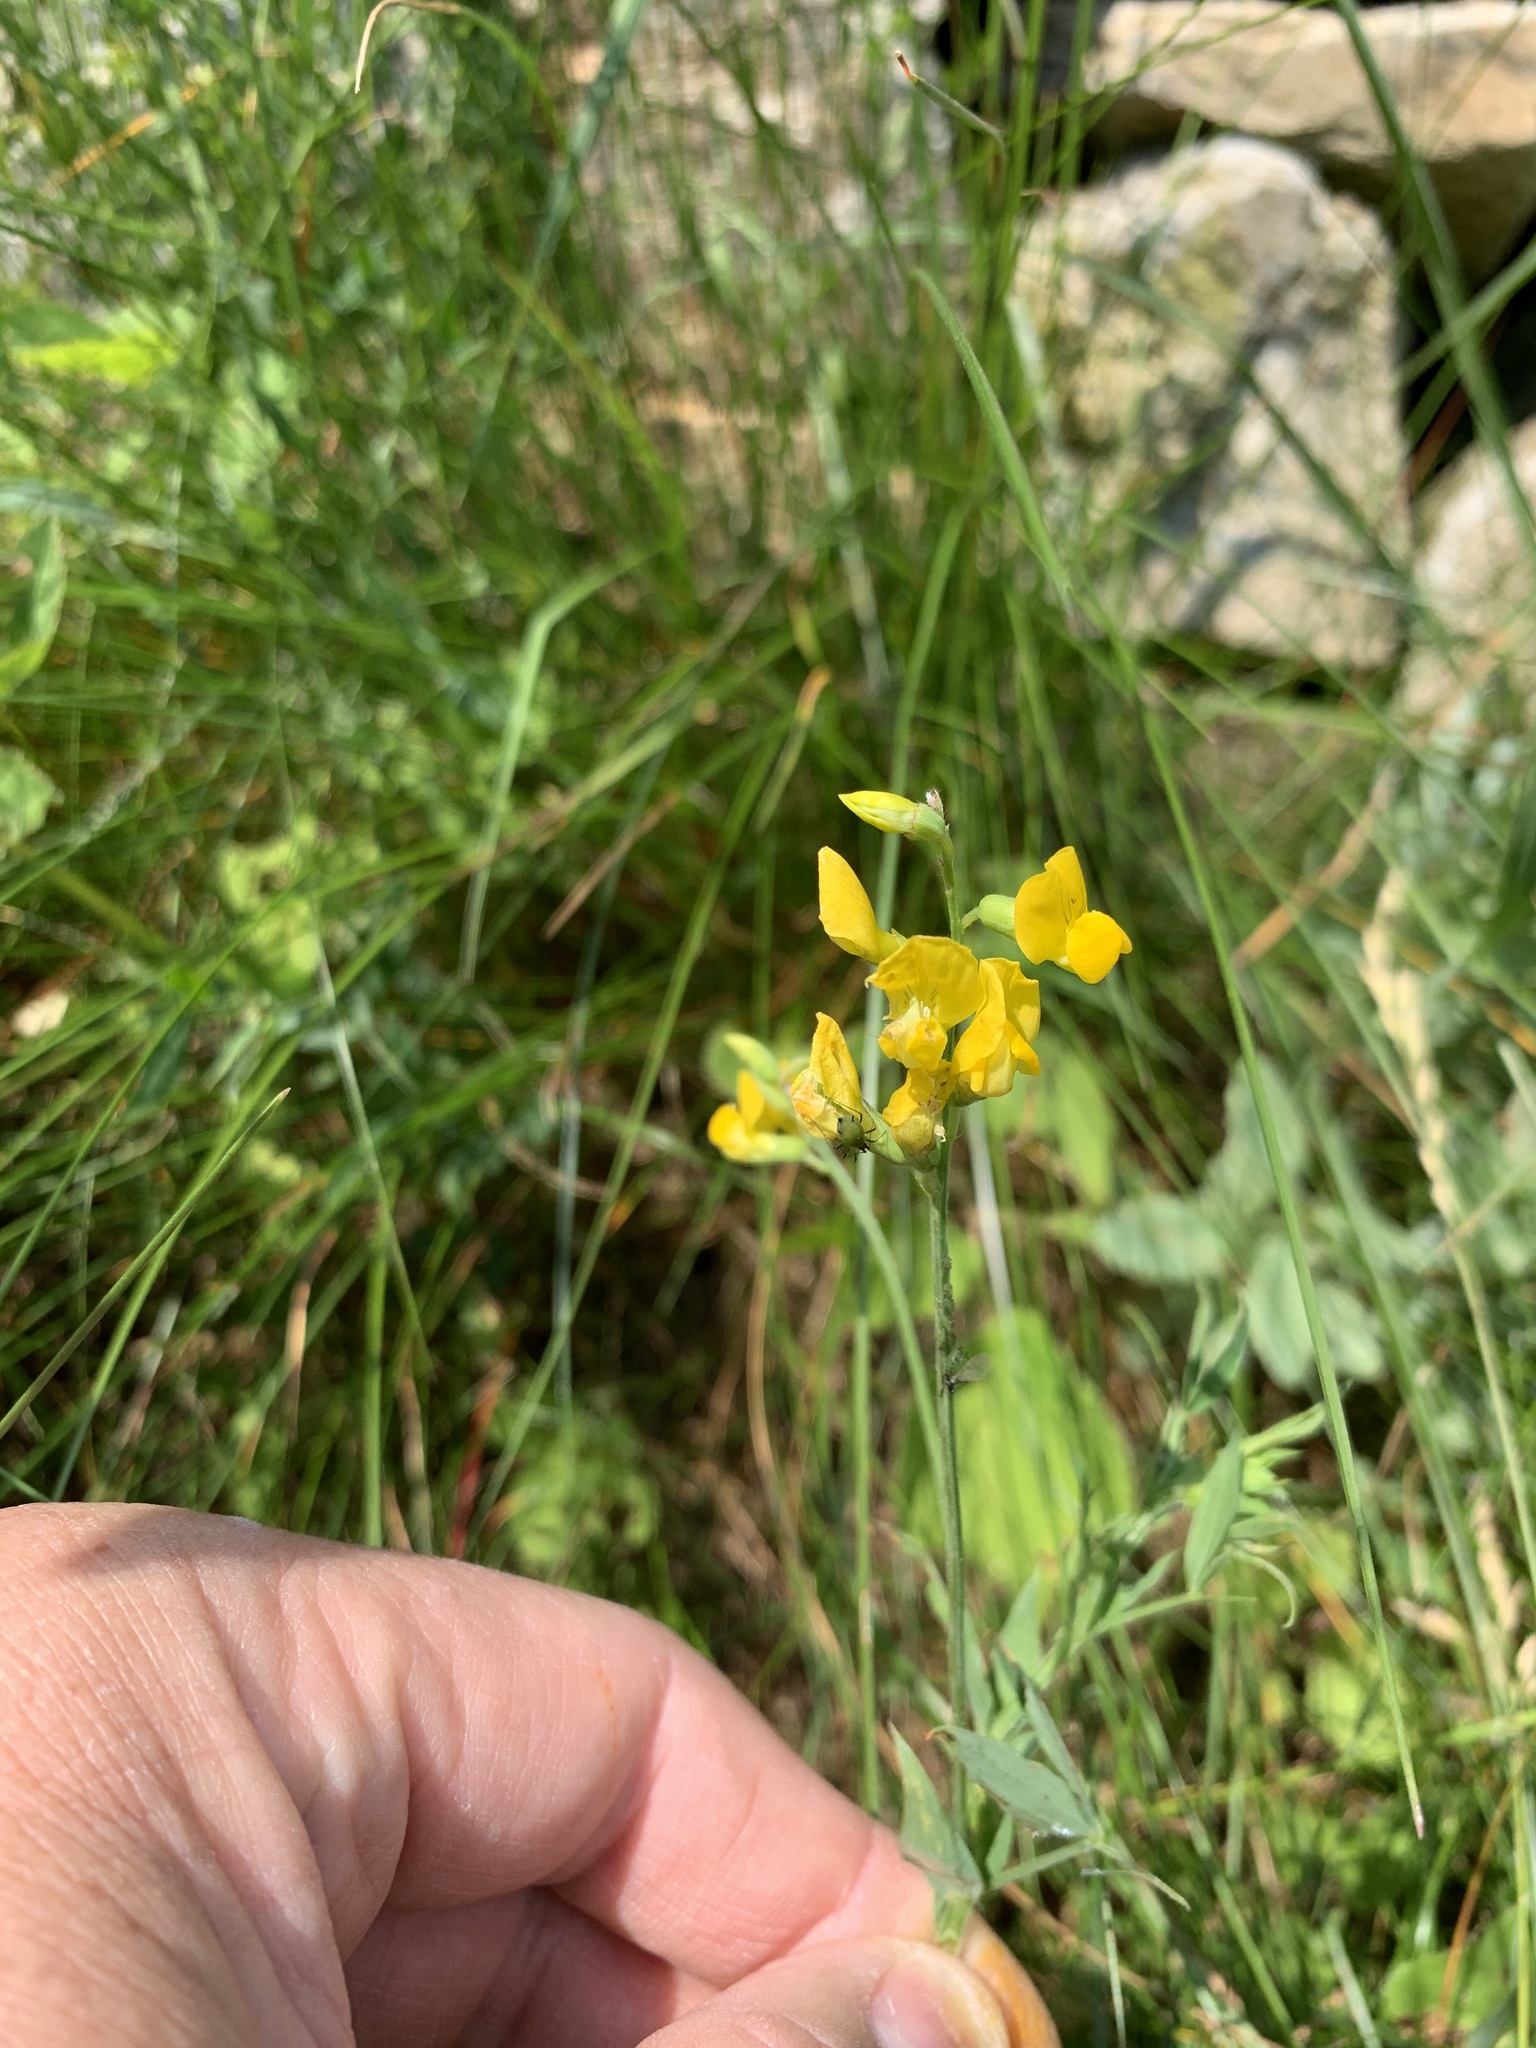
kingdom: Plantae
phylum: Tracheophyta
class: Magnoliopsida
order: Fabales
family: Fabaceae
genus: Lathyrus
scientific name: Lathyrus pratensis
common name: Meadow vetchling
